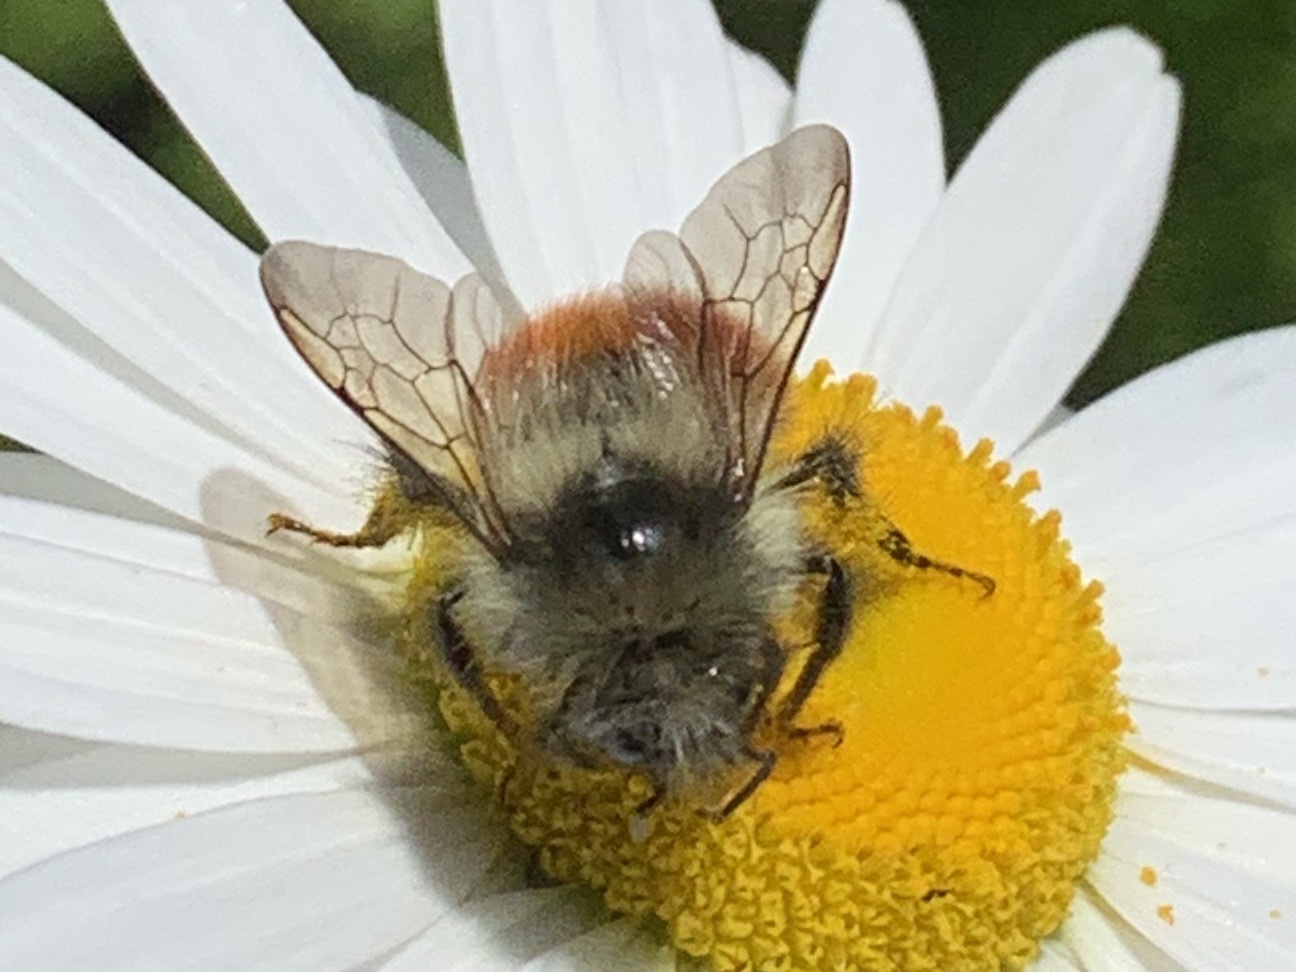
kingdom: Animalia
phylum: Arthropoda
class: Insecta
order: Hymenoptera
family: Apidae
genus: Bombus
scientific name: Bombus melanopygus
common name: Black tail bumble bee
